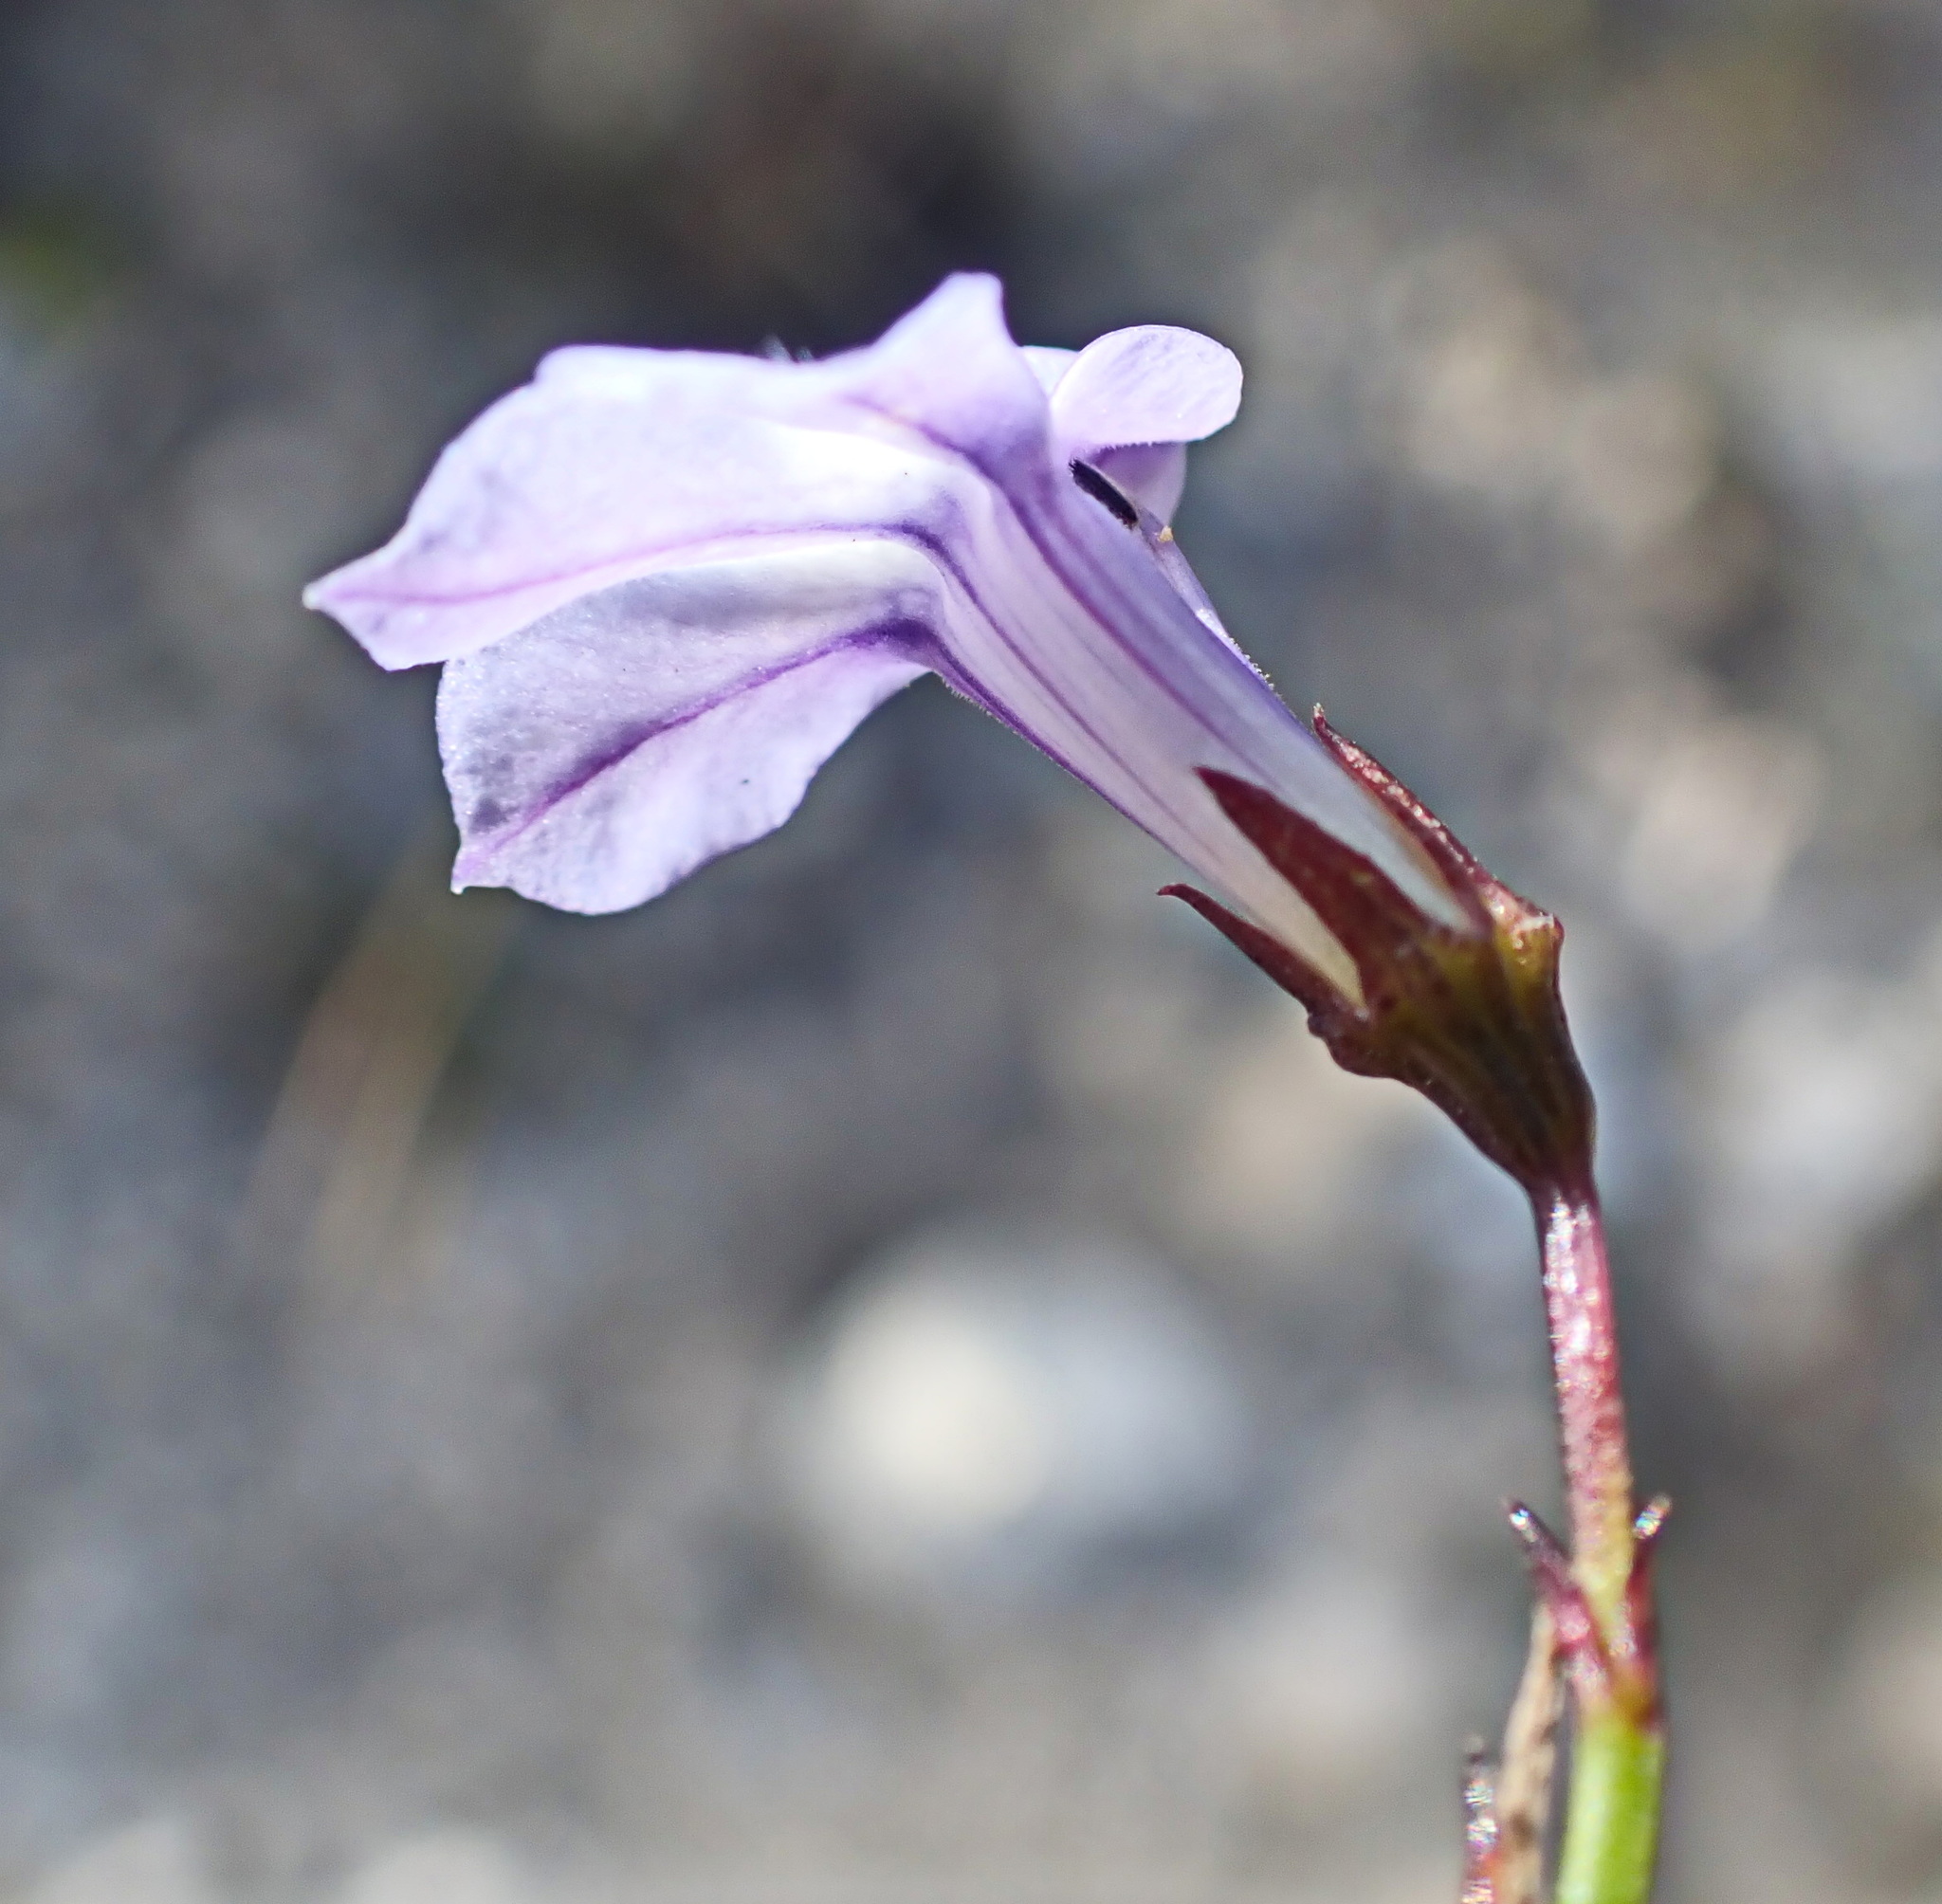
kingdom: Plantae
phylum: Tracheophyta
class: Magnoliopsida
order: Asterales
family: Campanulaceae
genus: Lobelia
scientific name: Lobelia capillifolia
